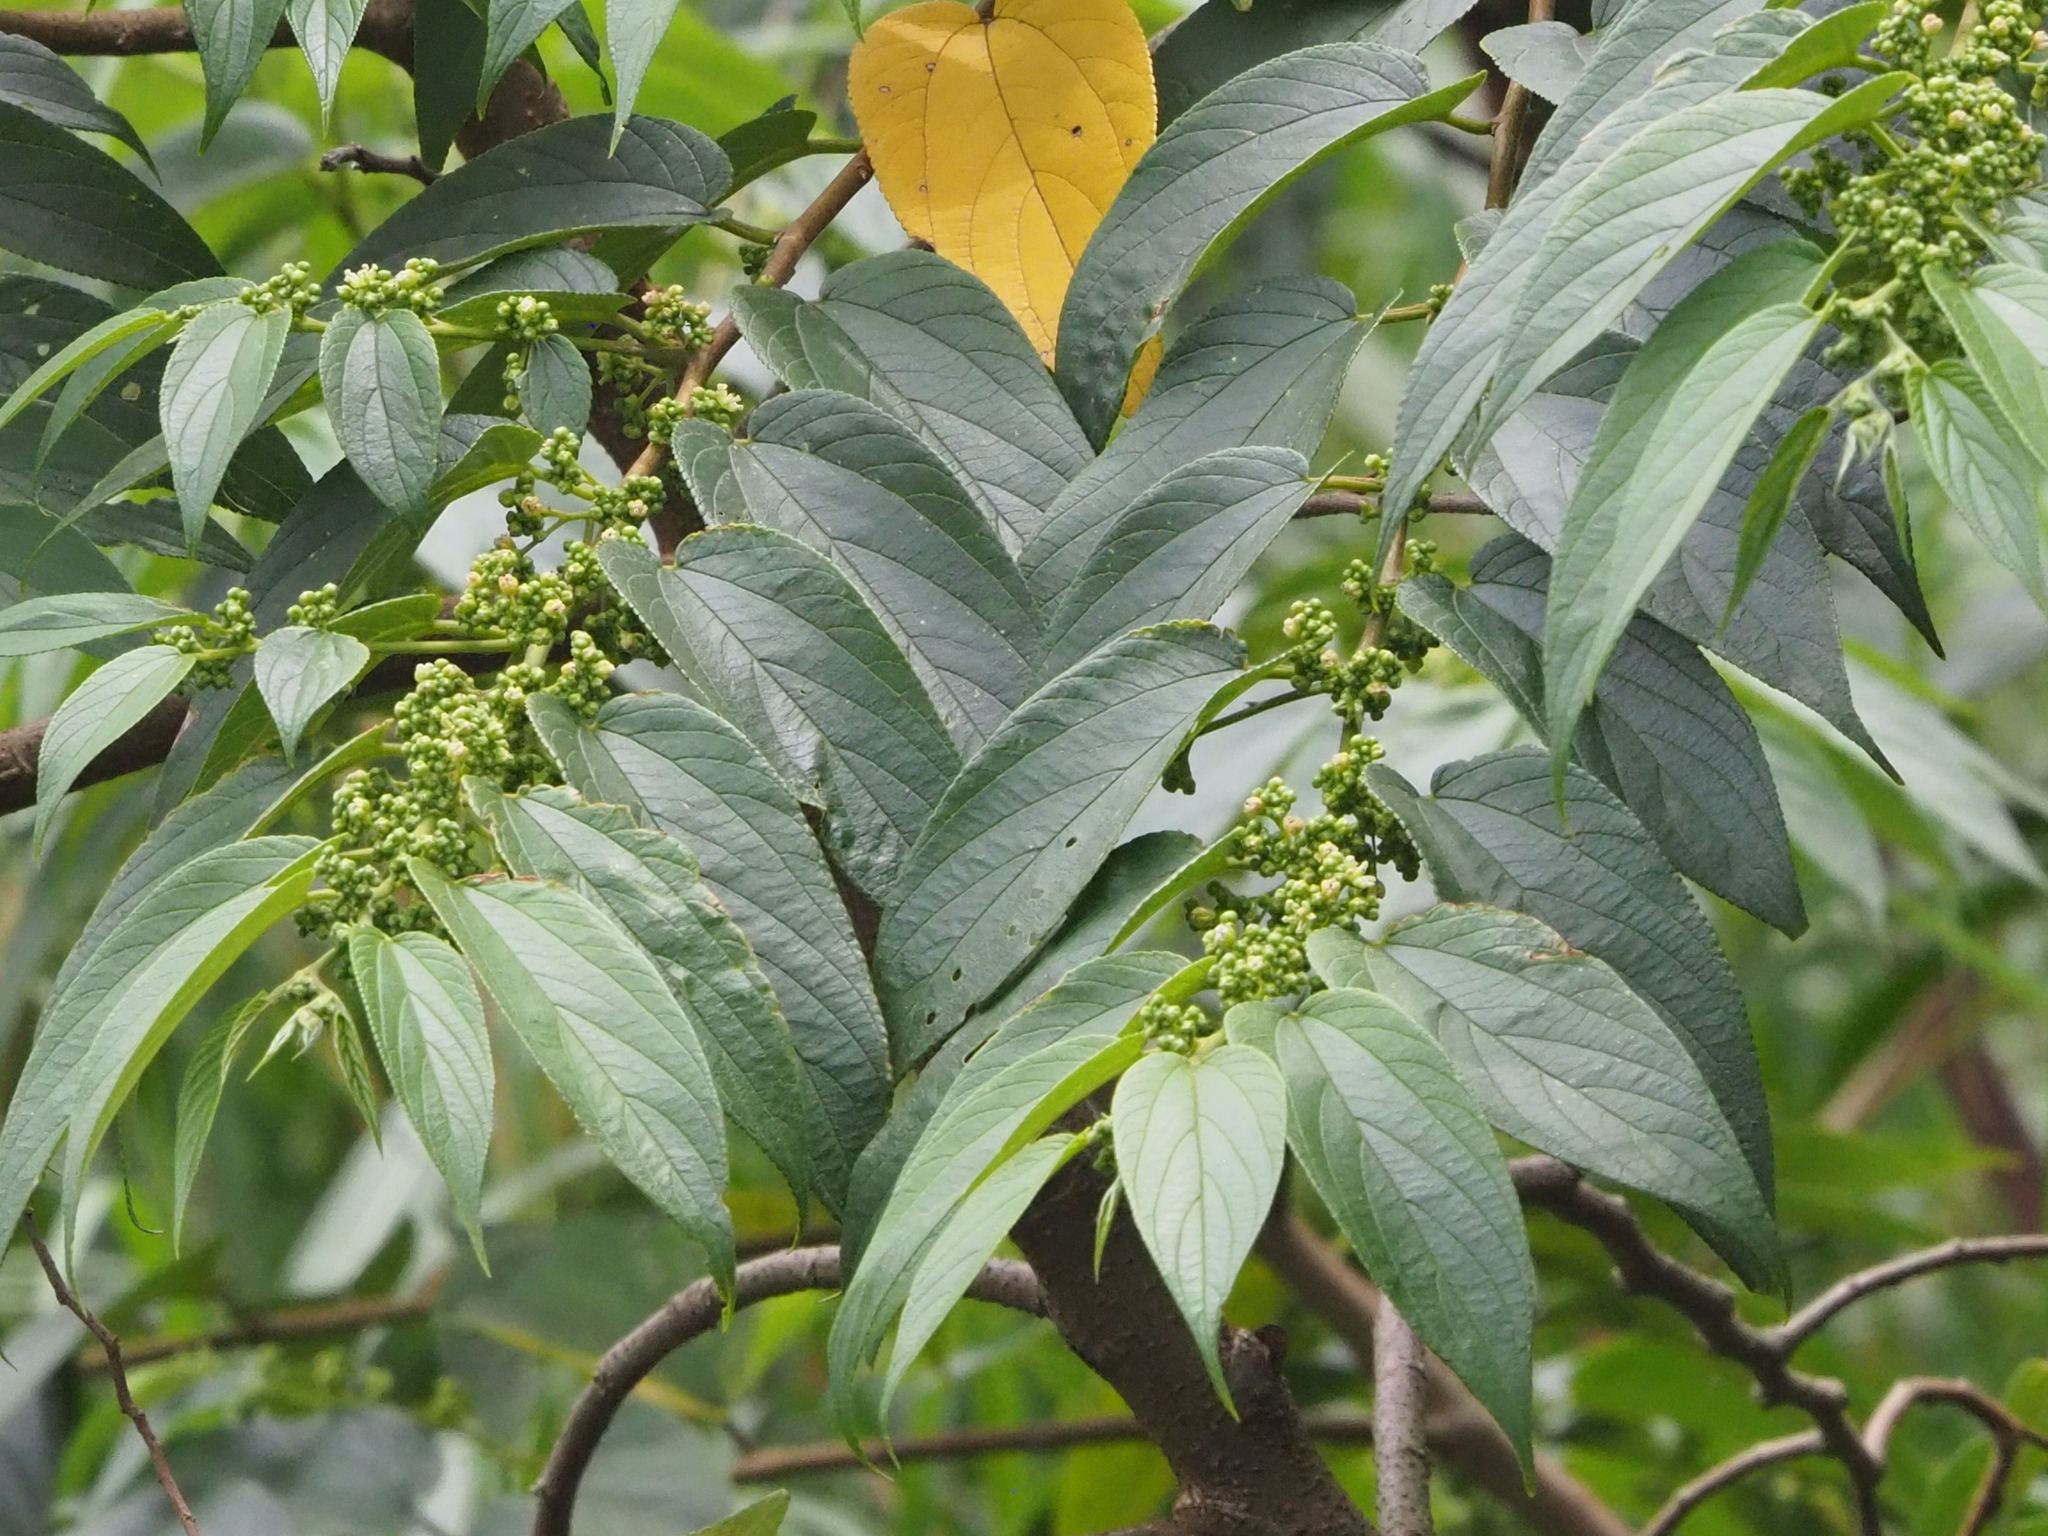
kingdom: Plantae
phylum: Tracheophyta
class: Magnoliopsida
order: Rosales
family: Cannabaceae
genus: Trema
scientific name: Trema orientale
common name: Indian charcoal tree
